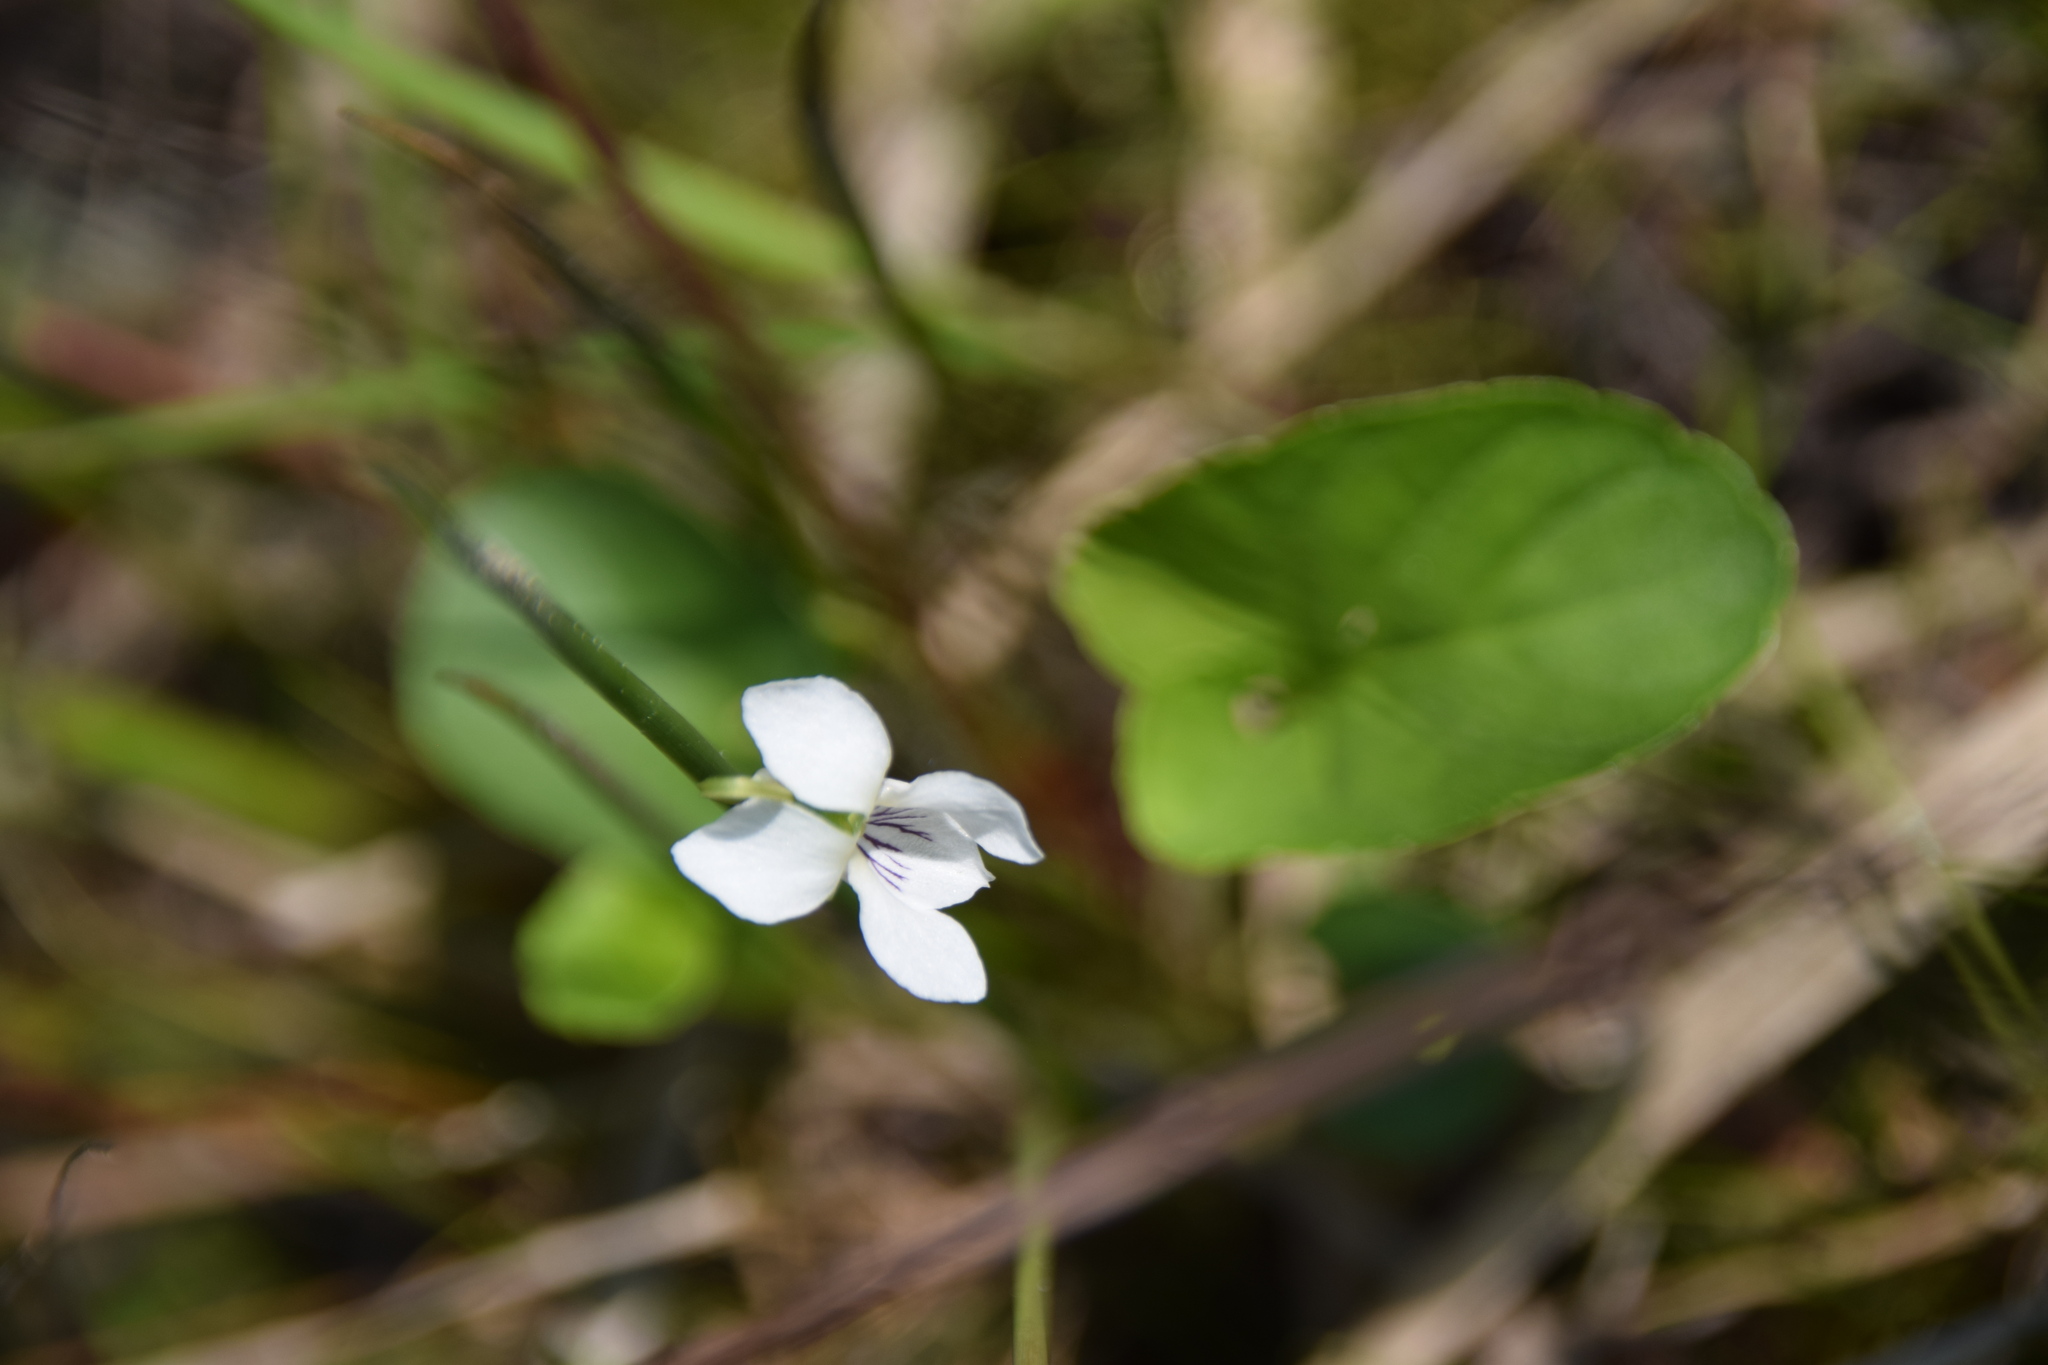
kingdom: Plantae
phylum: Tracheophyta
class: Magnoliopsida
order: Malpighiales
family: Violaceae
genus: Viola
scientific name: Viola blanda
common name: Sweet white violet
